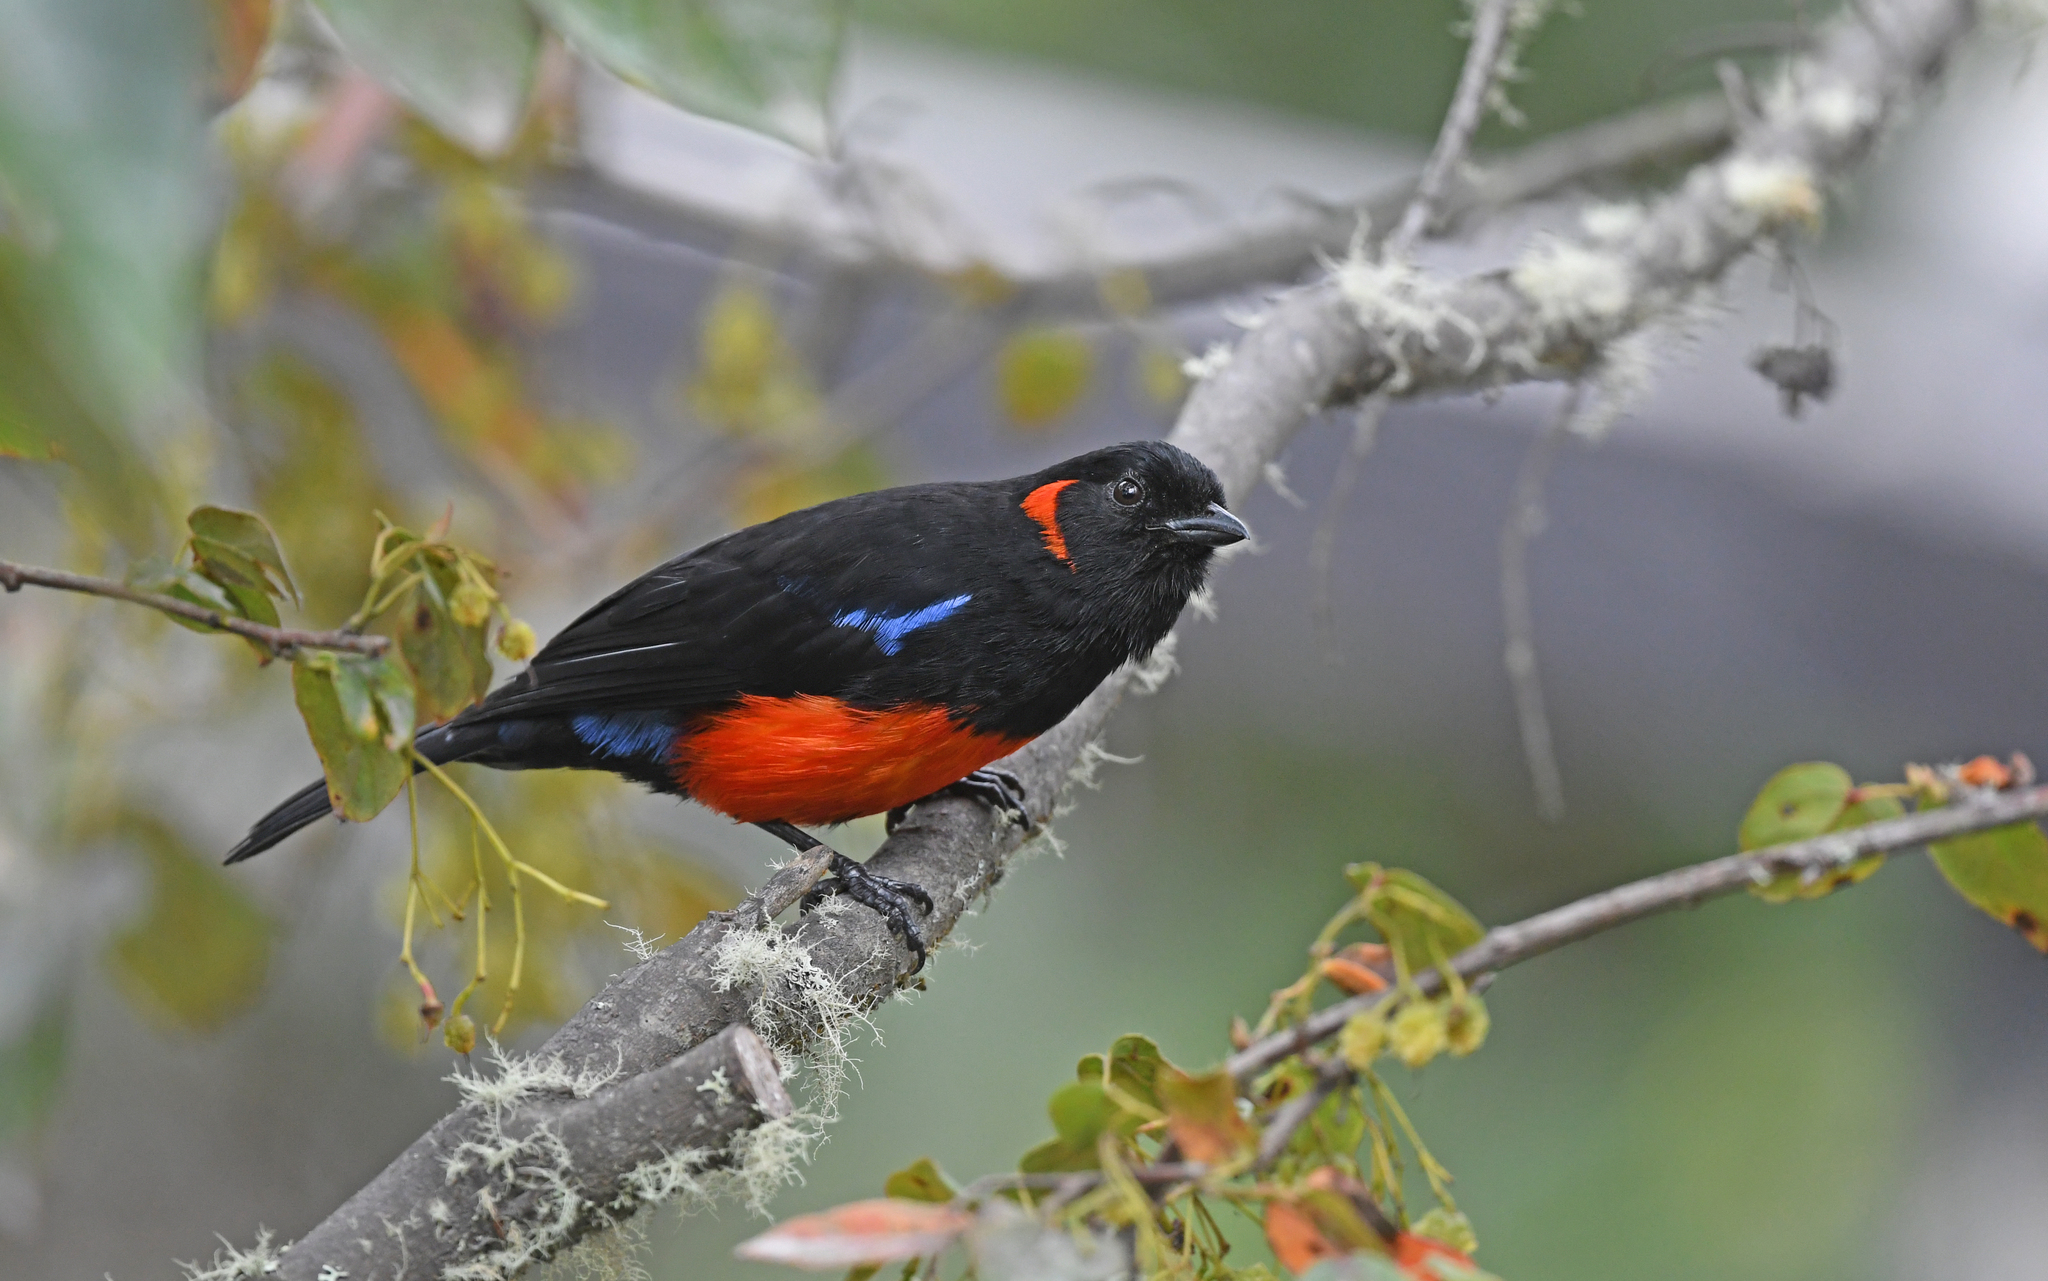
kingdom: Animalia
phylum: Chordata
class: Aves
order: Passeriformes
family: Thraupidae
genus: Anisognathus
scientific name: Anisognathus igniventris
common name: Scarlet-bellied mountain tanager
